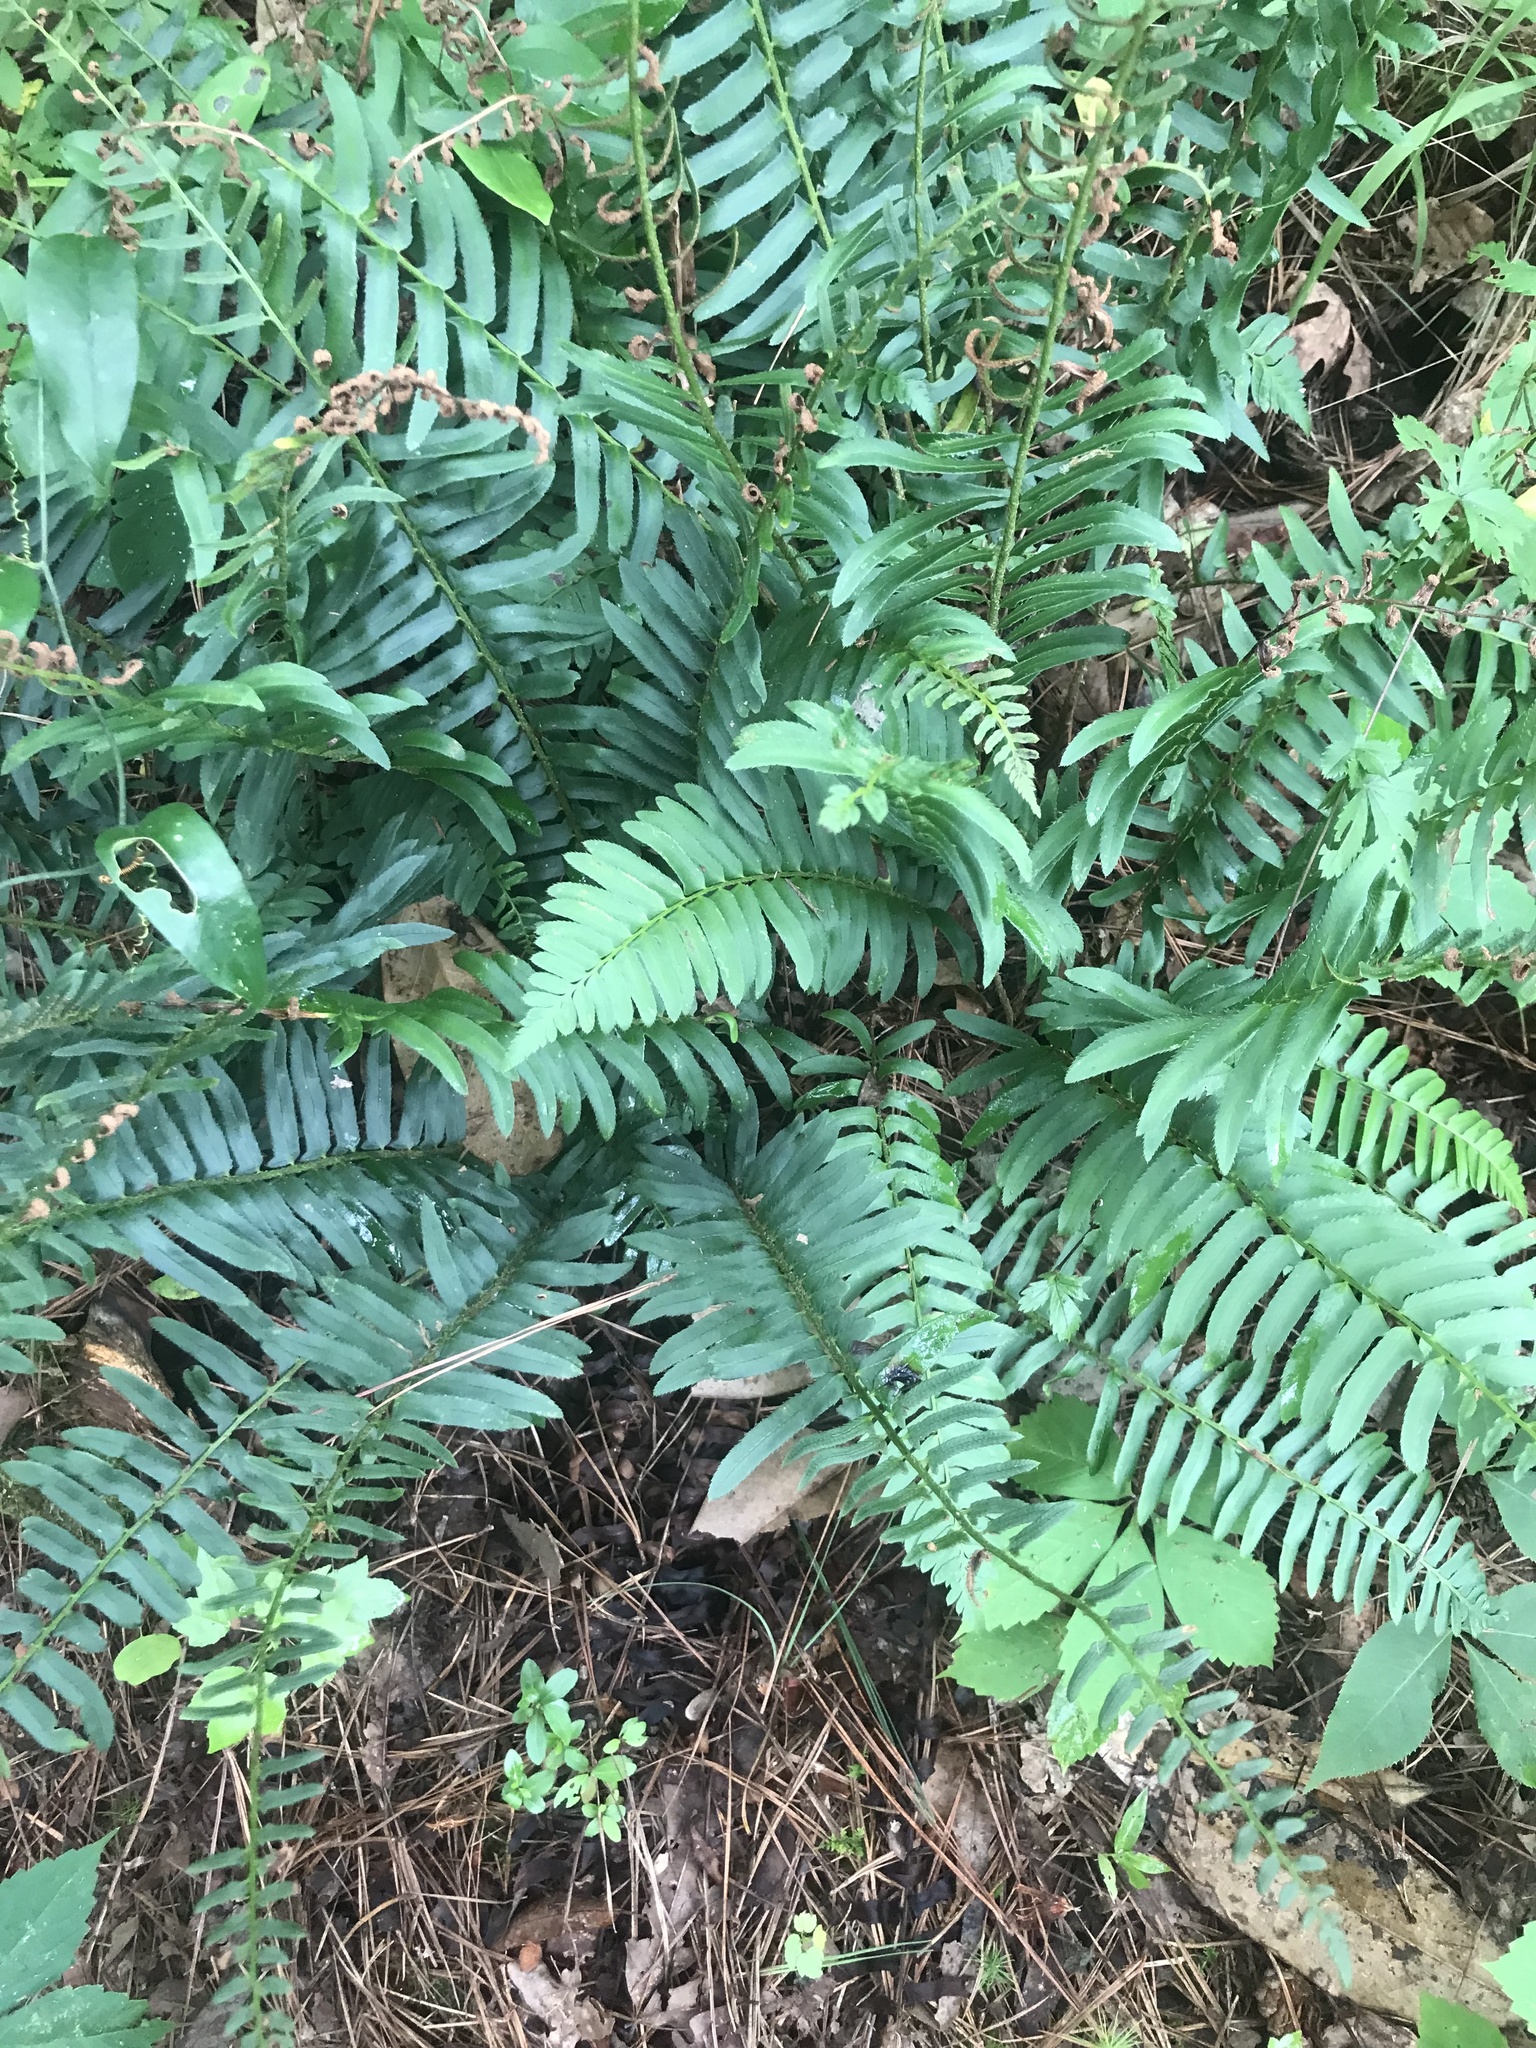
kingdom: Plantae
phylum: Tracheophyta
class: Polypodiopsida
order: Polypodiales
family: Dryopteridaceae
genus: Polystichum
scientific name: Polystichum acrostichoides
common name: Christmas fern
